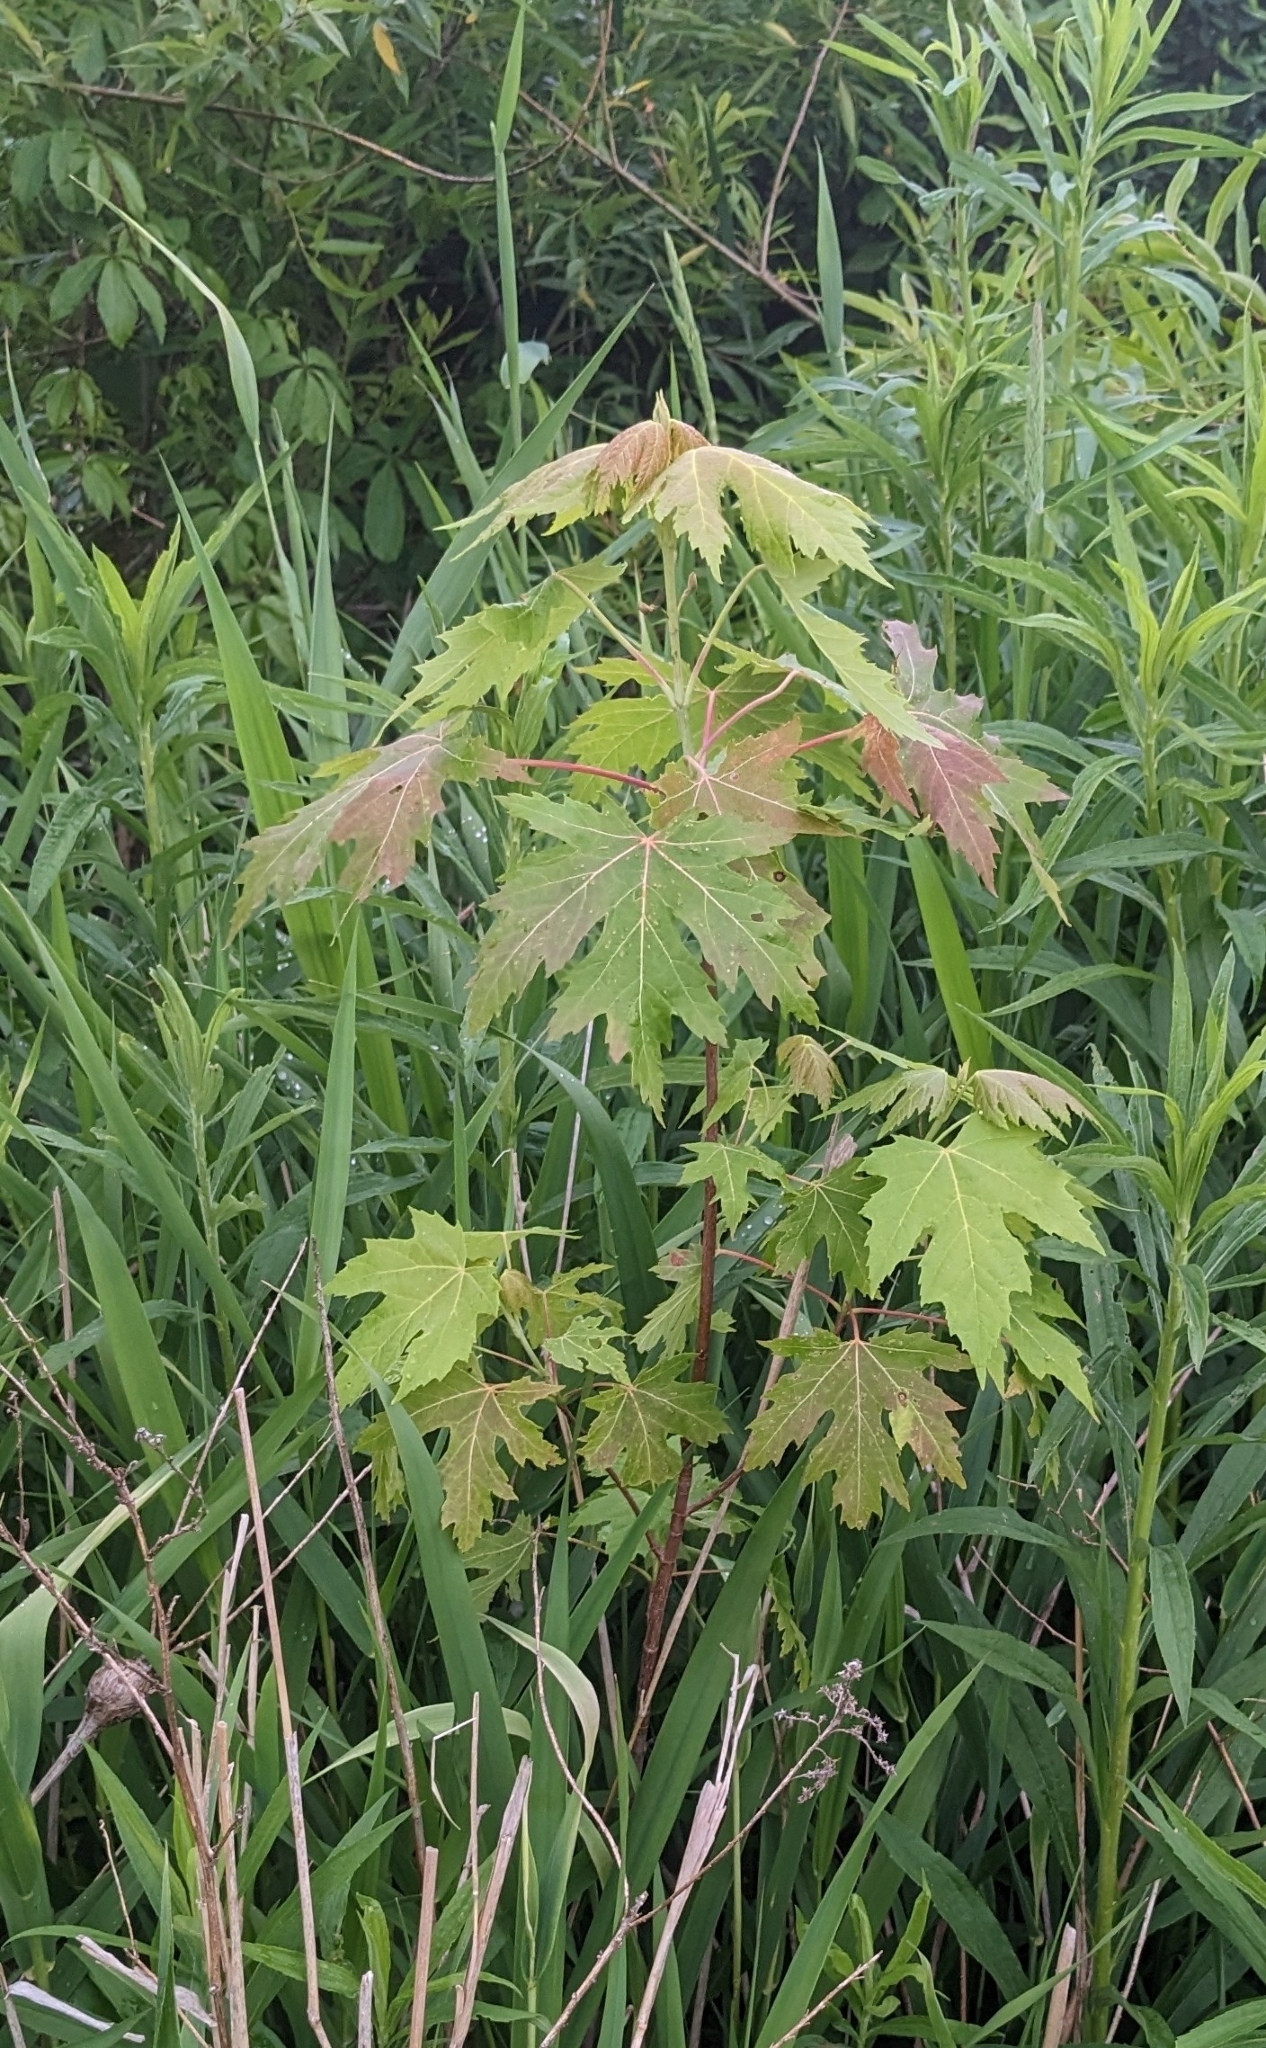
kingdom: Plantae
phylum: Tracheophyta
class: Magnoliopsida
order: Sapindales
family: Sapindaceae
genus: Acer
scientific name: Acer saccharinum
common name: Silver maple
